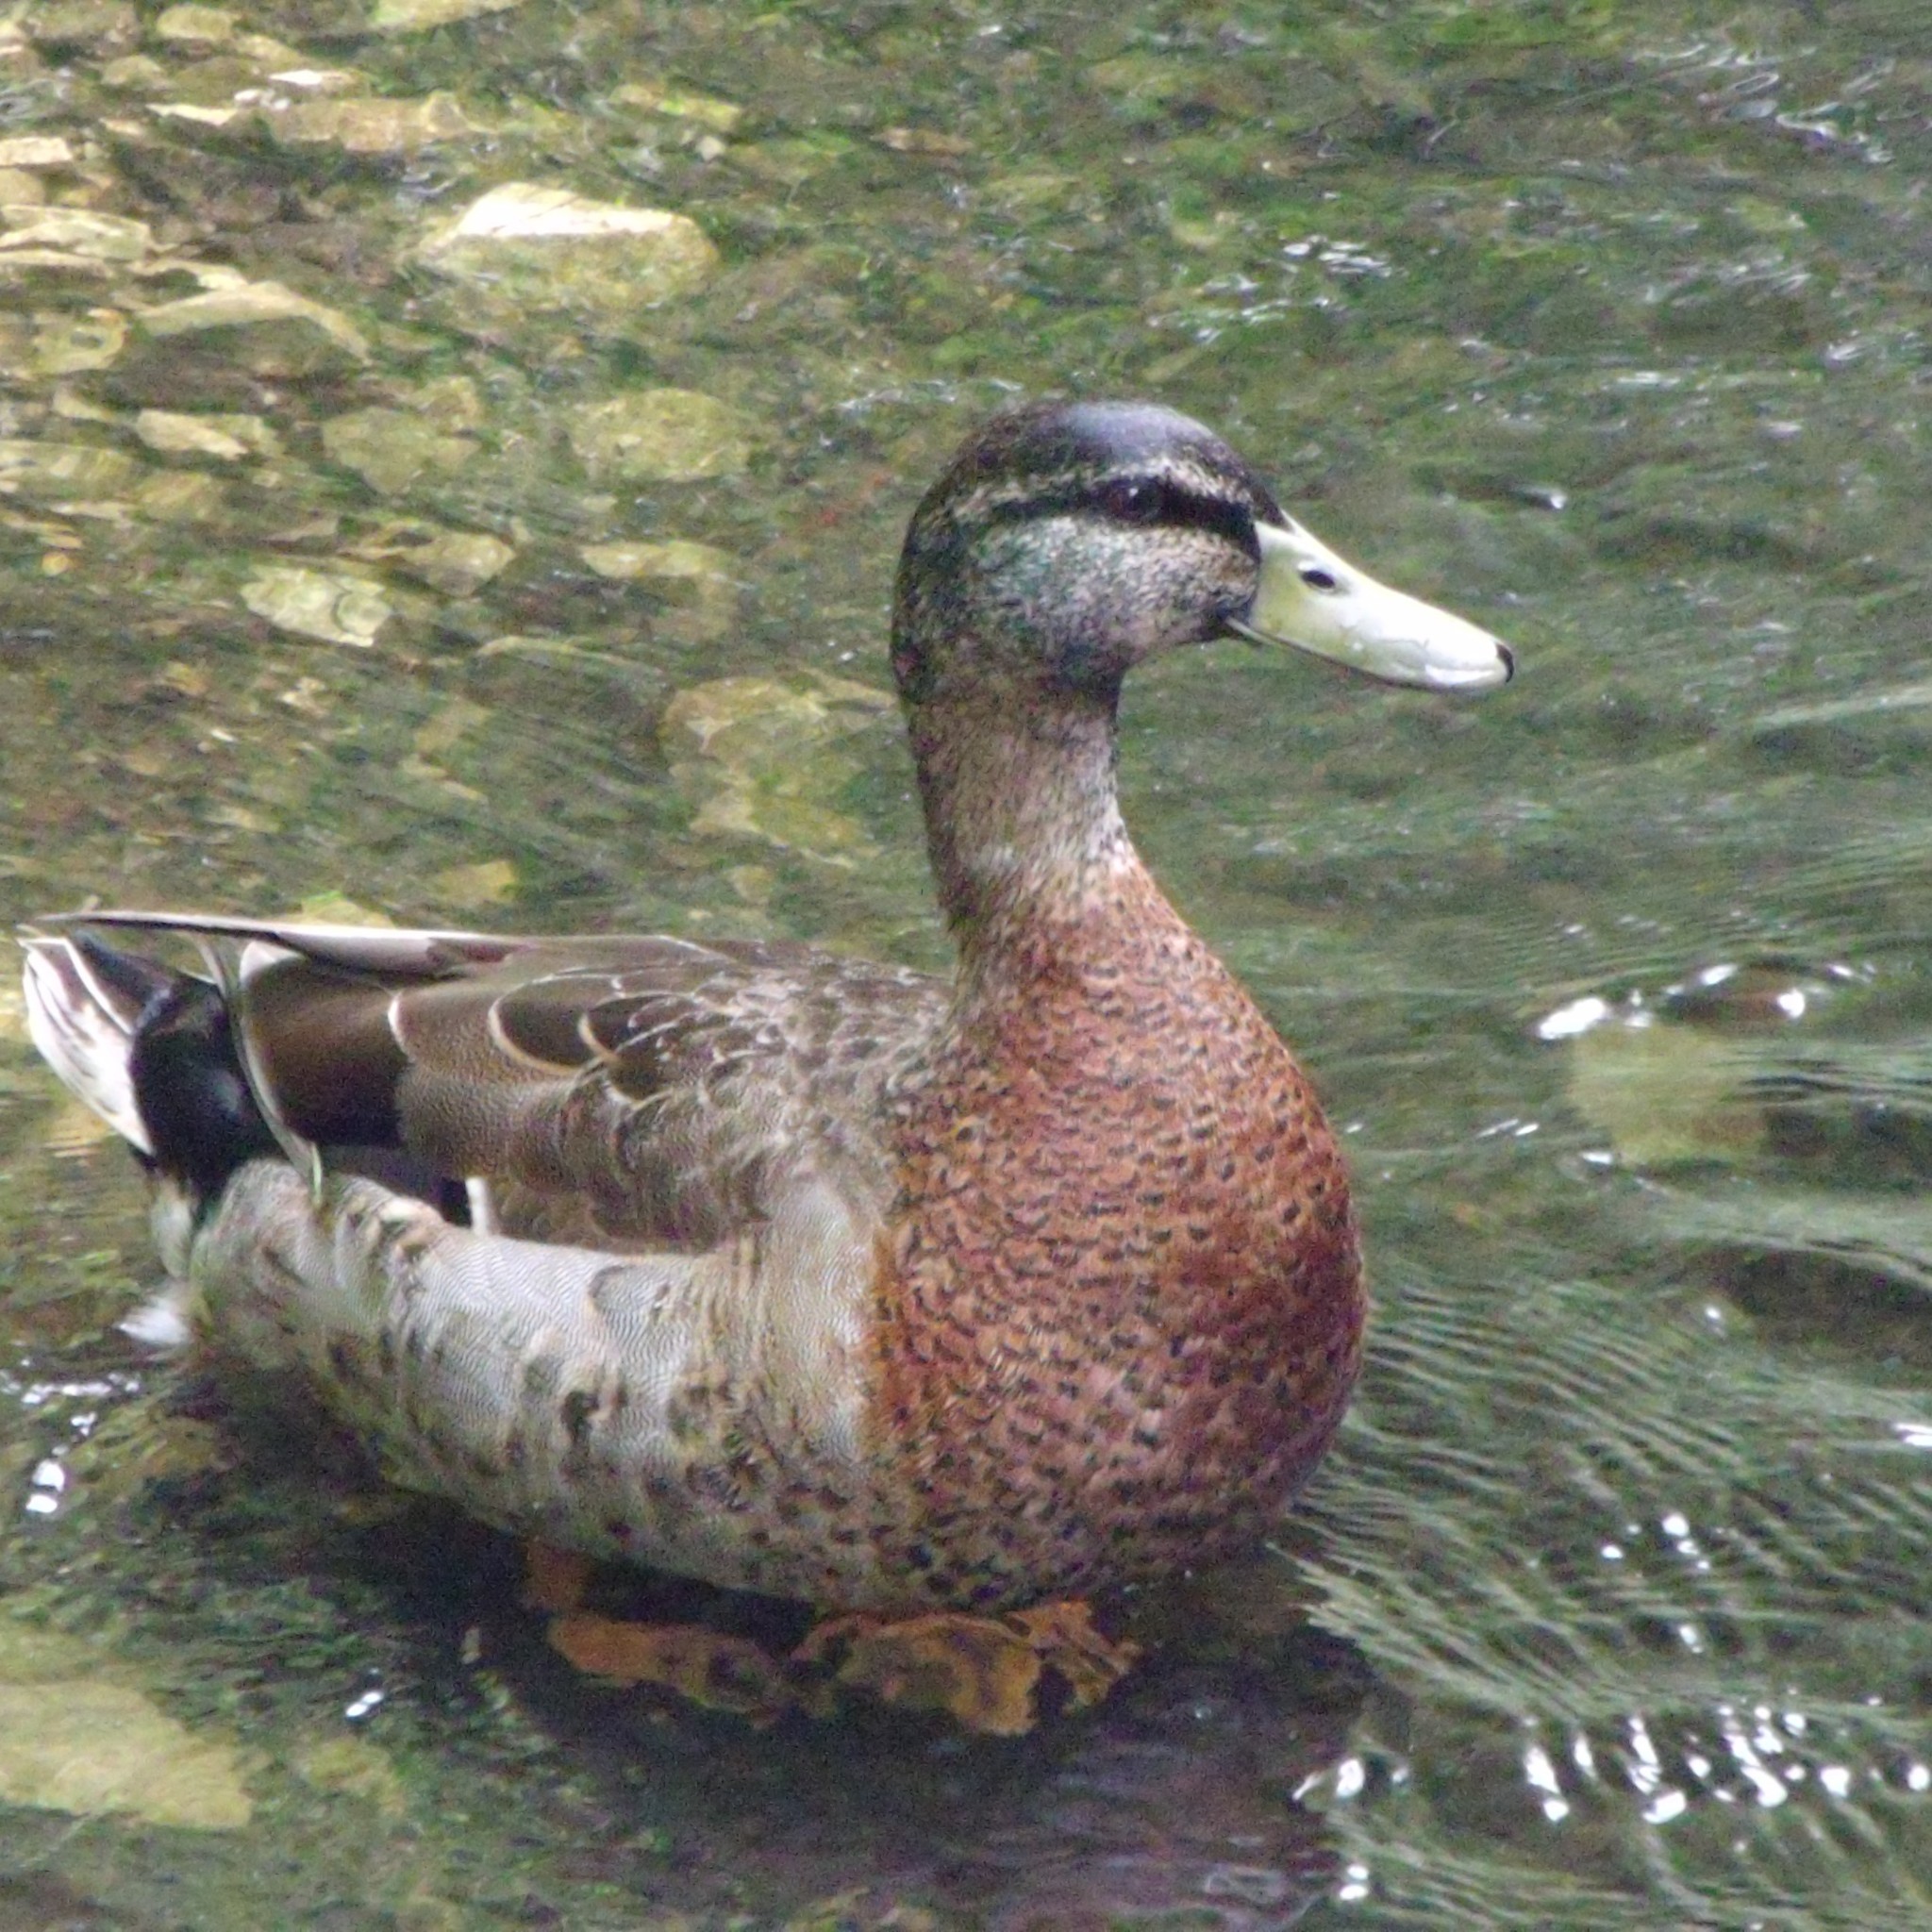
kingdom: Animalia
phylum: Chordata
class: Aves
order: Anseriformes
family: Anatidae
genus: Anas
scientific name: Anas
